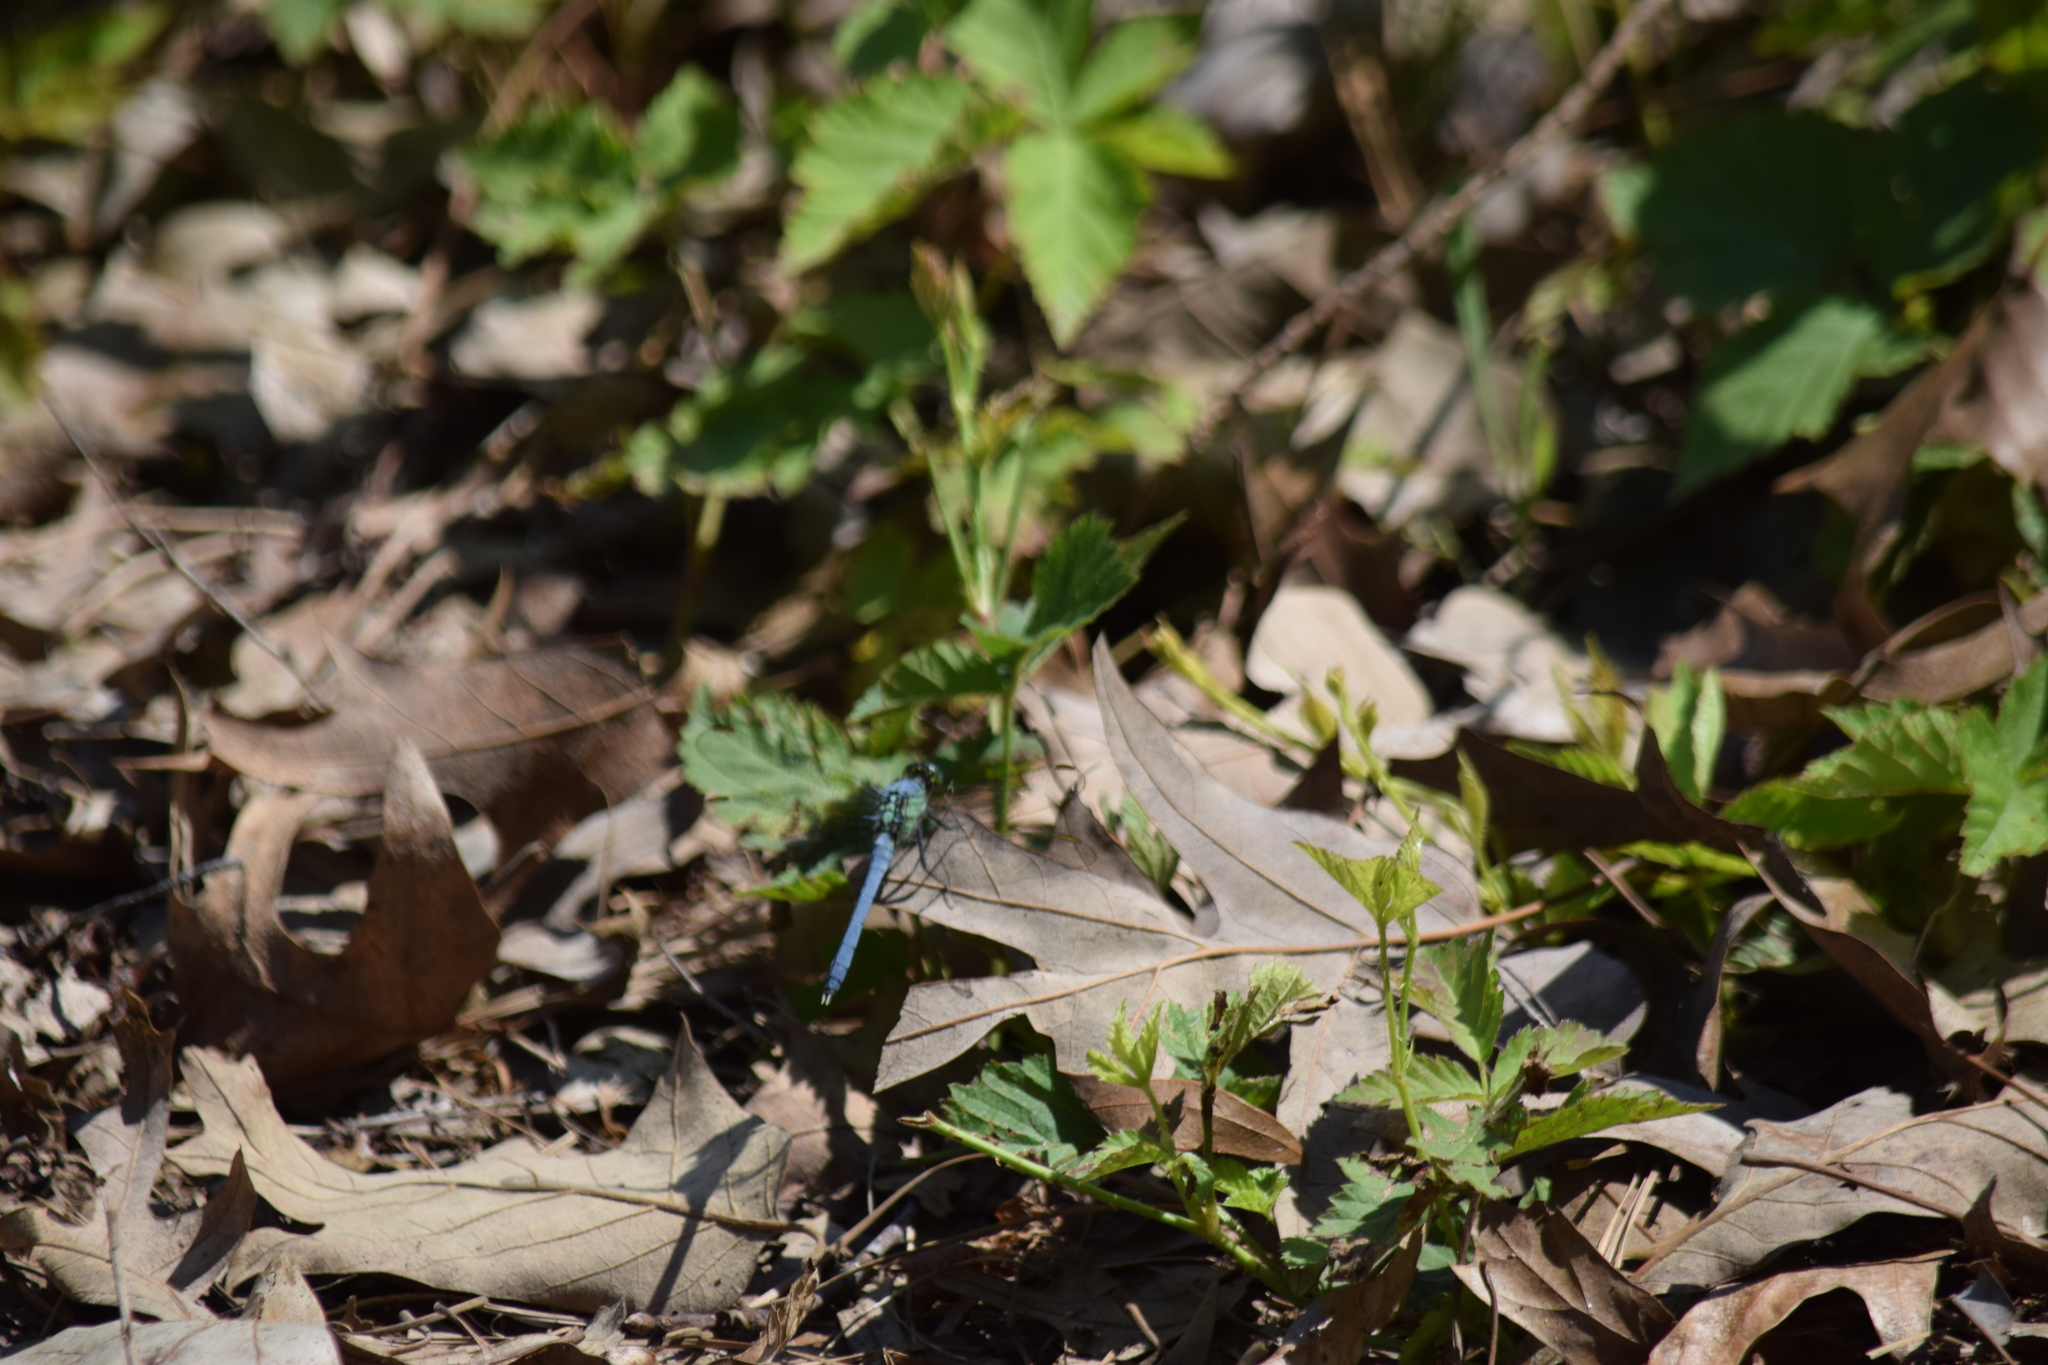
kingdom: Animalia
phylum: Arthropoda
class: Insecta
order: Odonata
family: Libellulidae
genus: Erythemis
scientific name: Erythemis simplicicollis
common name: Eastern pondhawk
